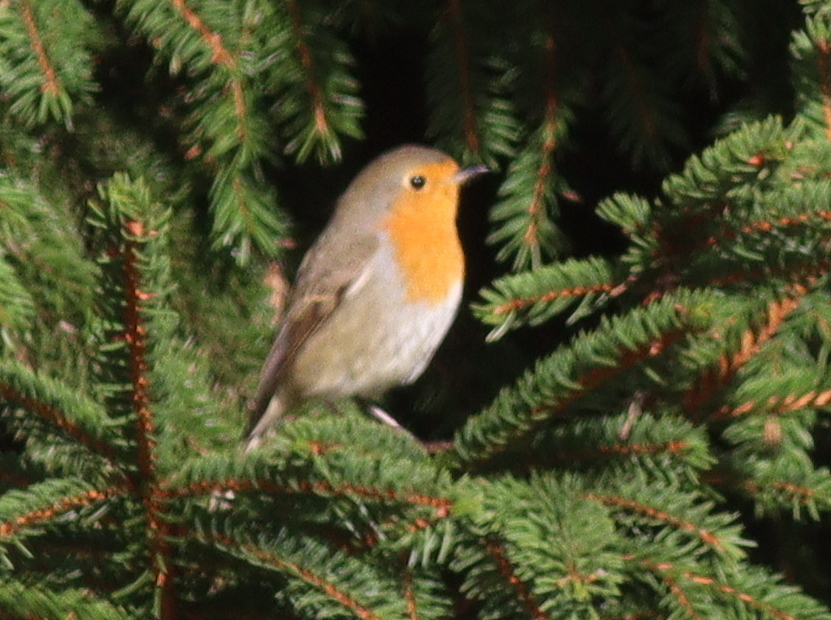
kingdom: Animalia
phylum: Chordata
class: Aves
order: Passeriformes
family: Muscicapidae
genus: Erithacus
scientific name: Erithacus rubecula
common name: European robin
